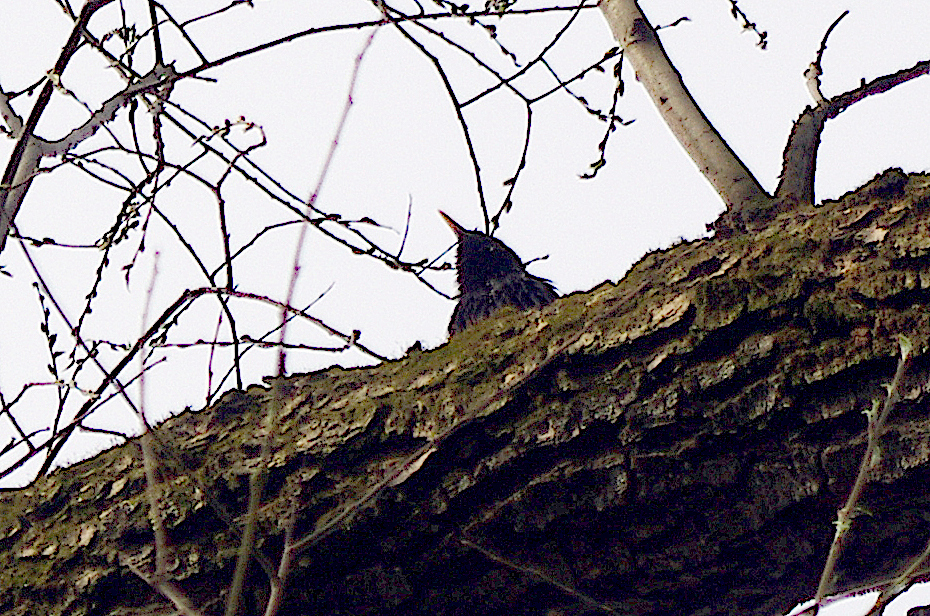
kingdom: Animalia
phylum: Chordata
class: Aves
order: Passeriformes
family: Sturnidae
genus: Sturnus
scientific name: Sturnus vulgaris
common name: Common starling
